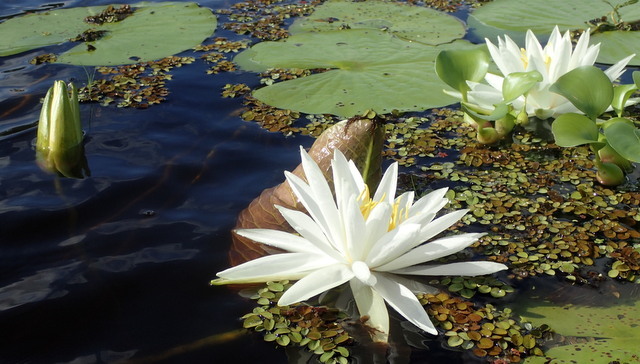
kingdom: Plantae
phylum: Tracheophyta
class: Magnoliopsida
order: Nymphaeales
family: Nymphaeaceae
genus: Nymphaea
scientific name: Nymphaea odorata
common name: Fragrant water-lily
